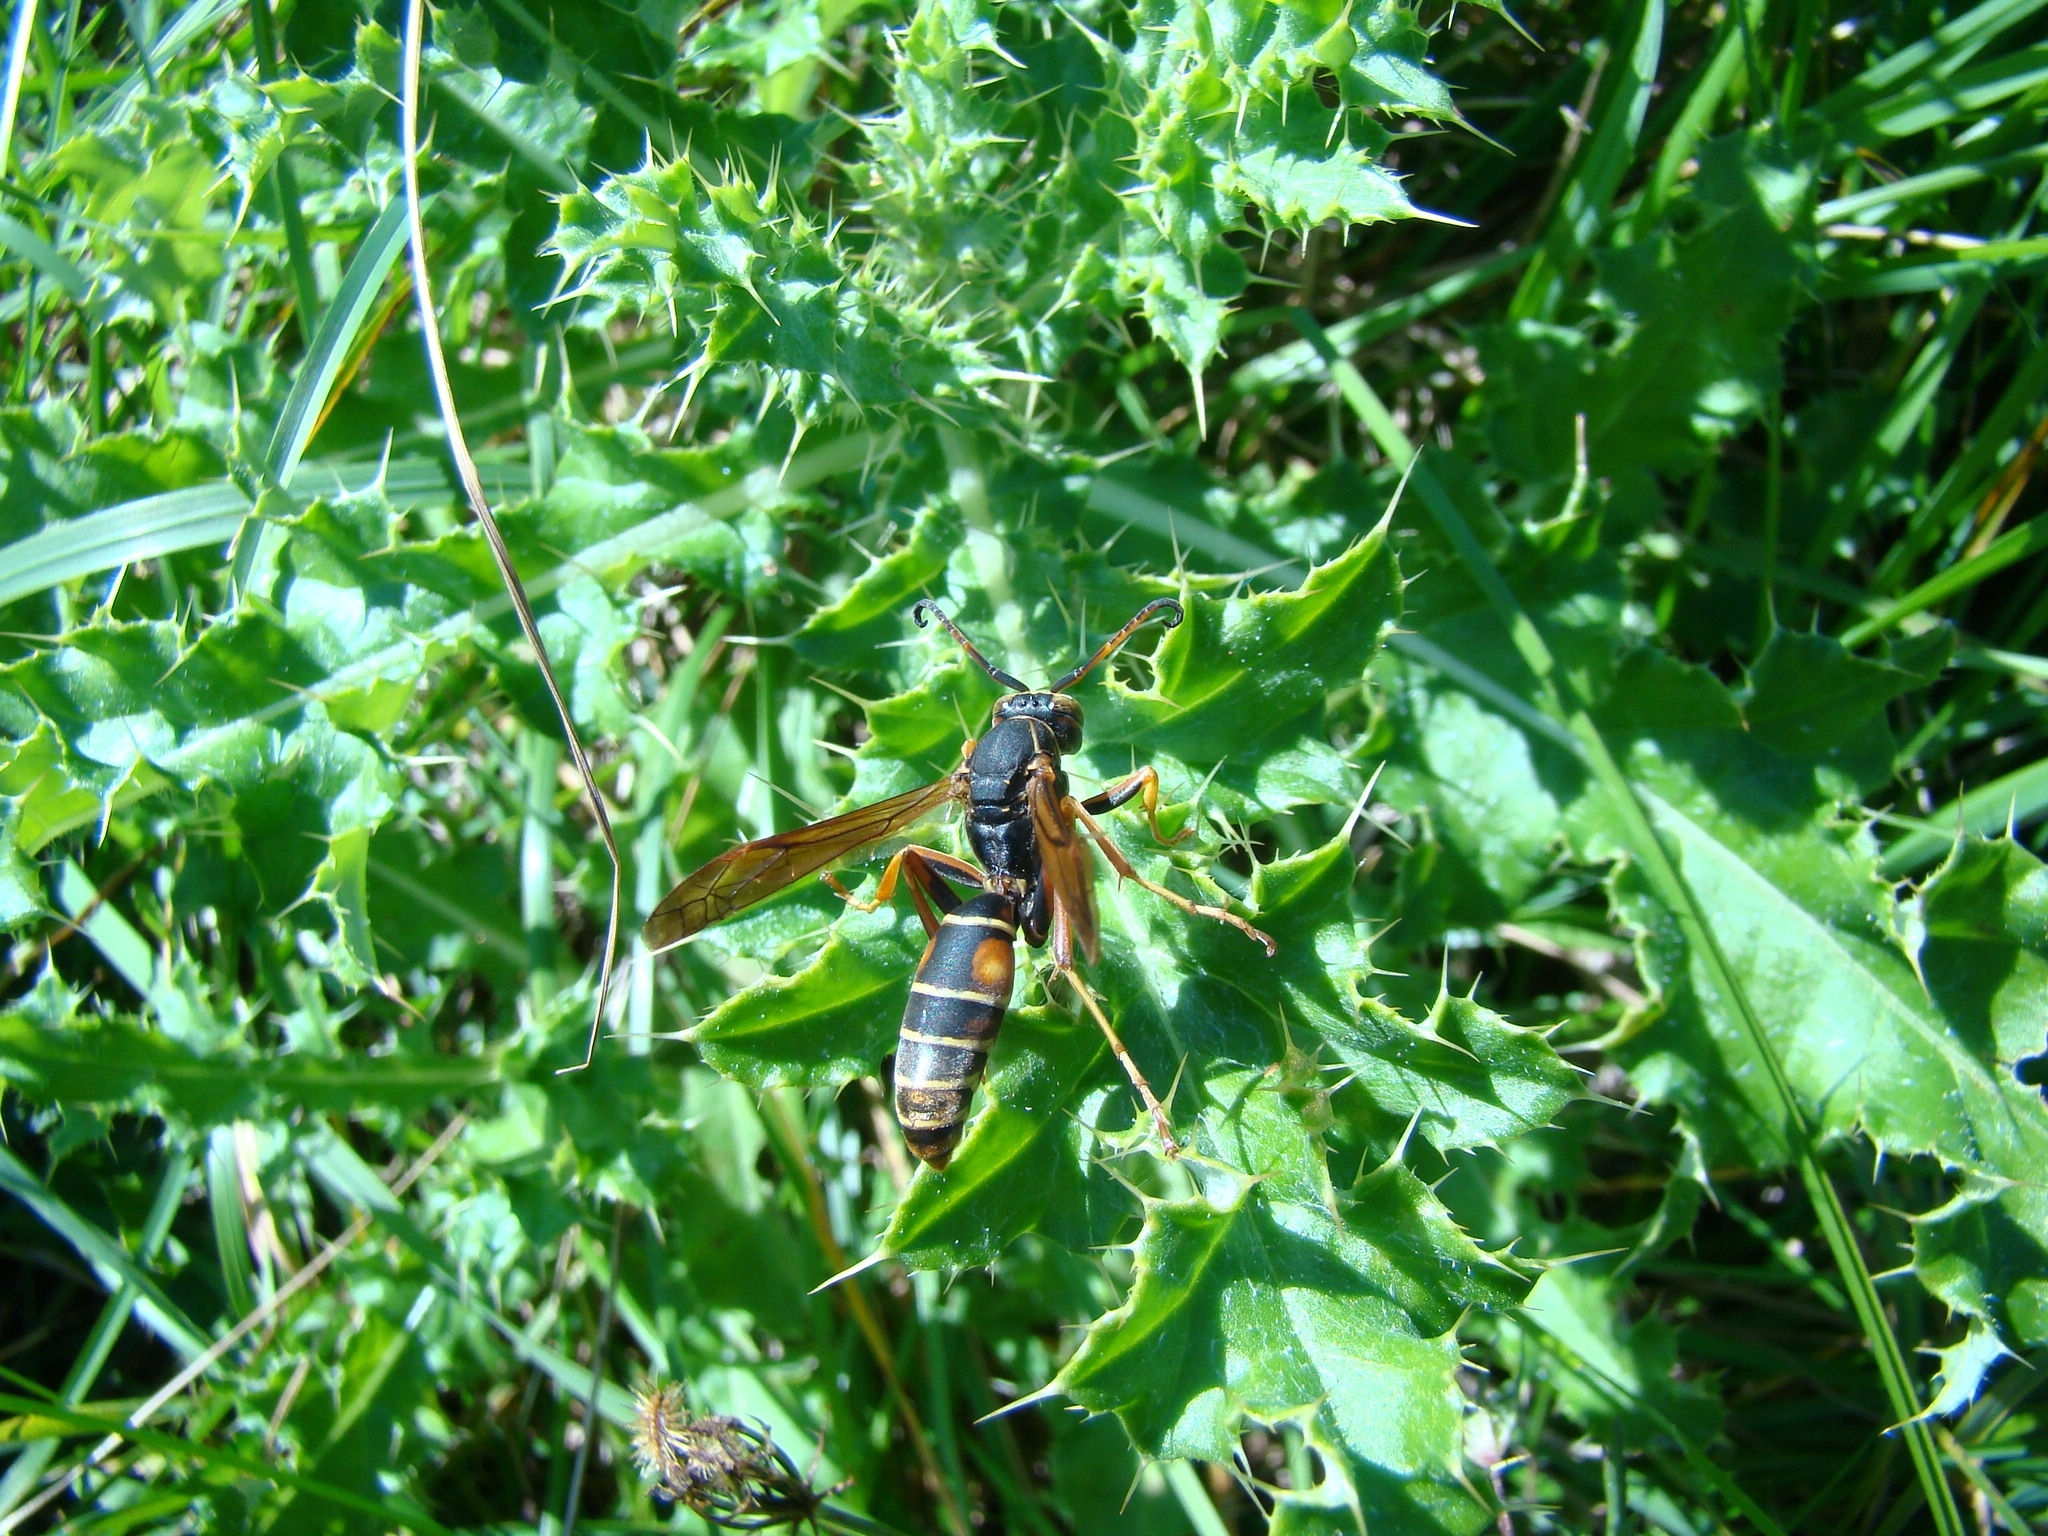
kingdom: Animalia
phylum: Arthropoda
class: Insecta
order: Hymenoptera
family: Eumenidae
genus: Polistes
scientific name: Polistes fuscatus
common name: Dark paper wasp
